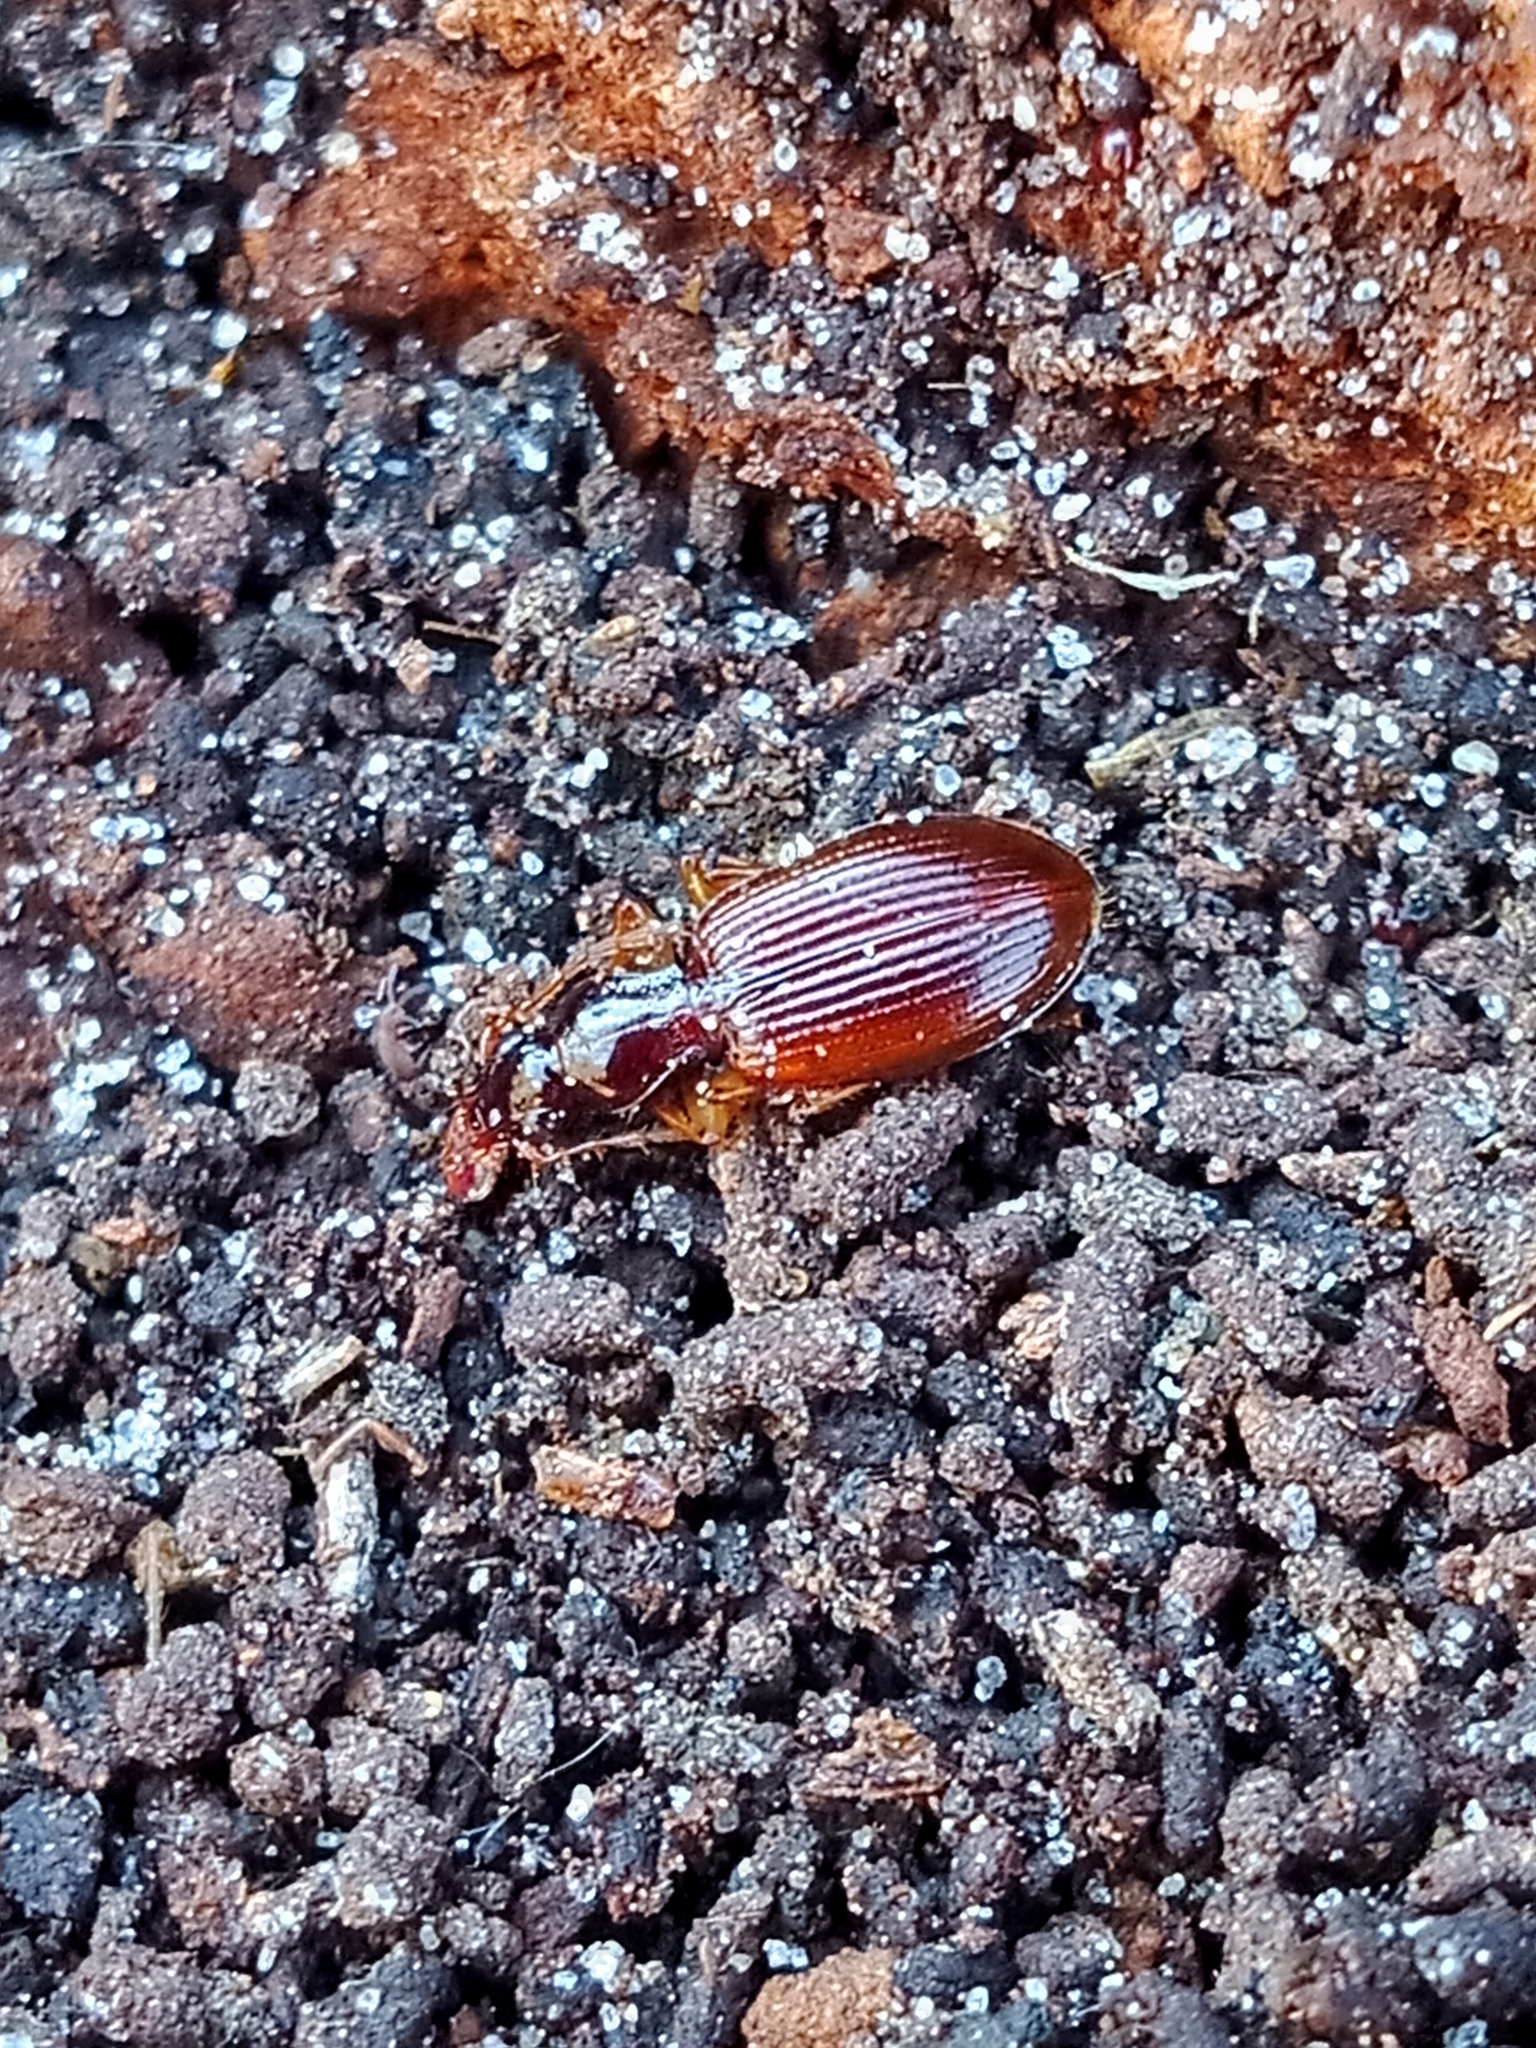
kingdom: Animalia
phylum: Arthropoda
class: Insecta
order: Coleoptera
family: Carabidae
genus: Oxypselaphus
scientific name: Oxypselaphus obscurus
